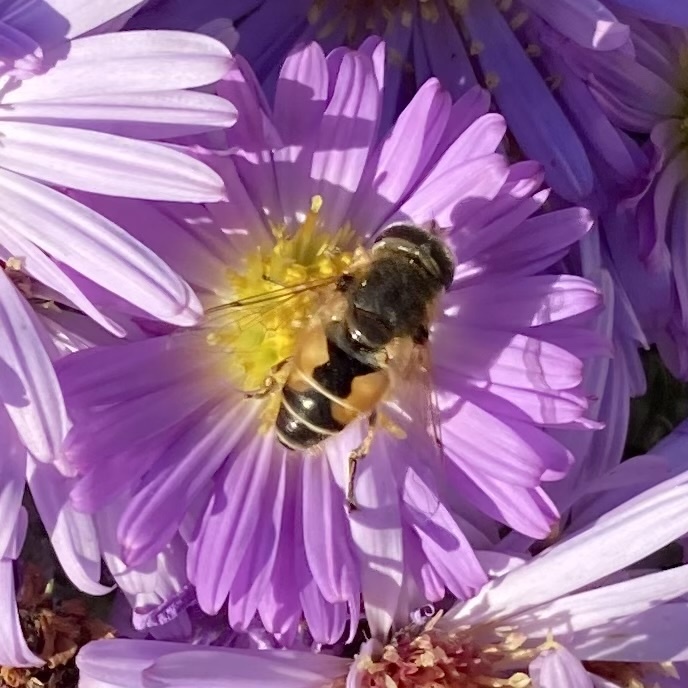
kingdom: Animalia
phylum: Arthropoda
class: Insecta
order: Diptera
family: Syrphidae
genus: Eristalis
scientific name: Eristalis arbustorum
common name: Hover fly
